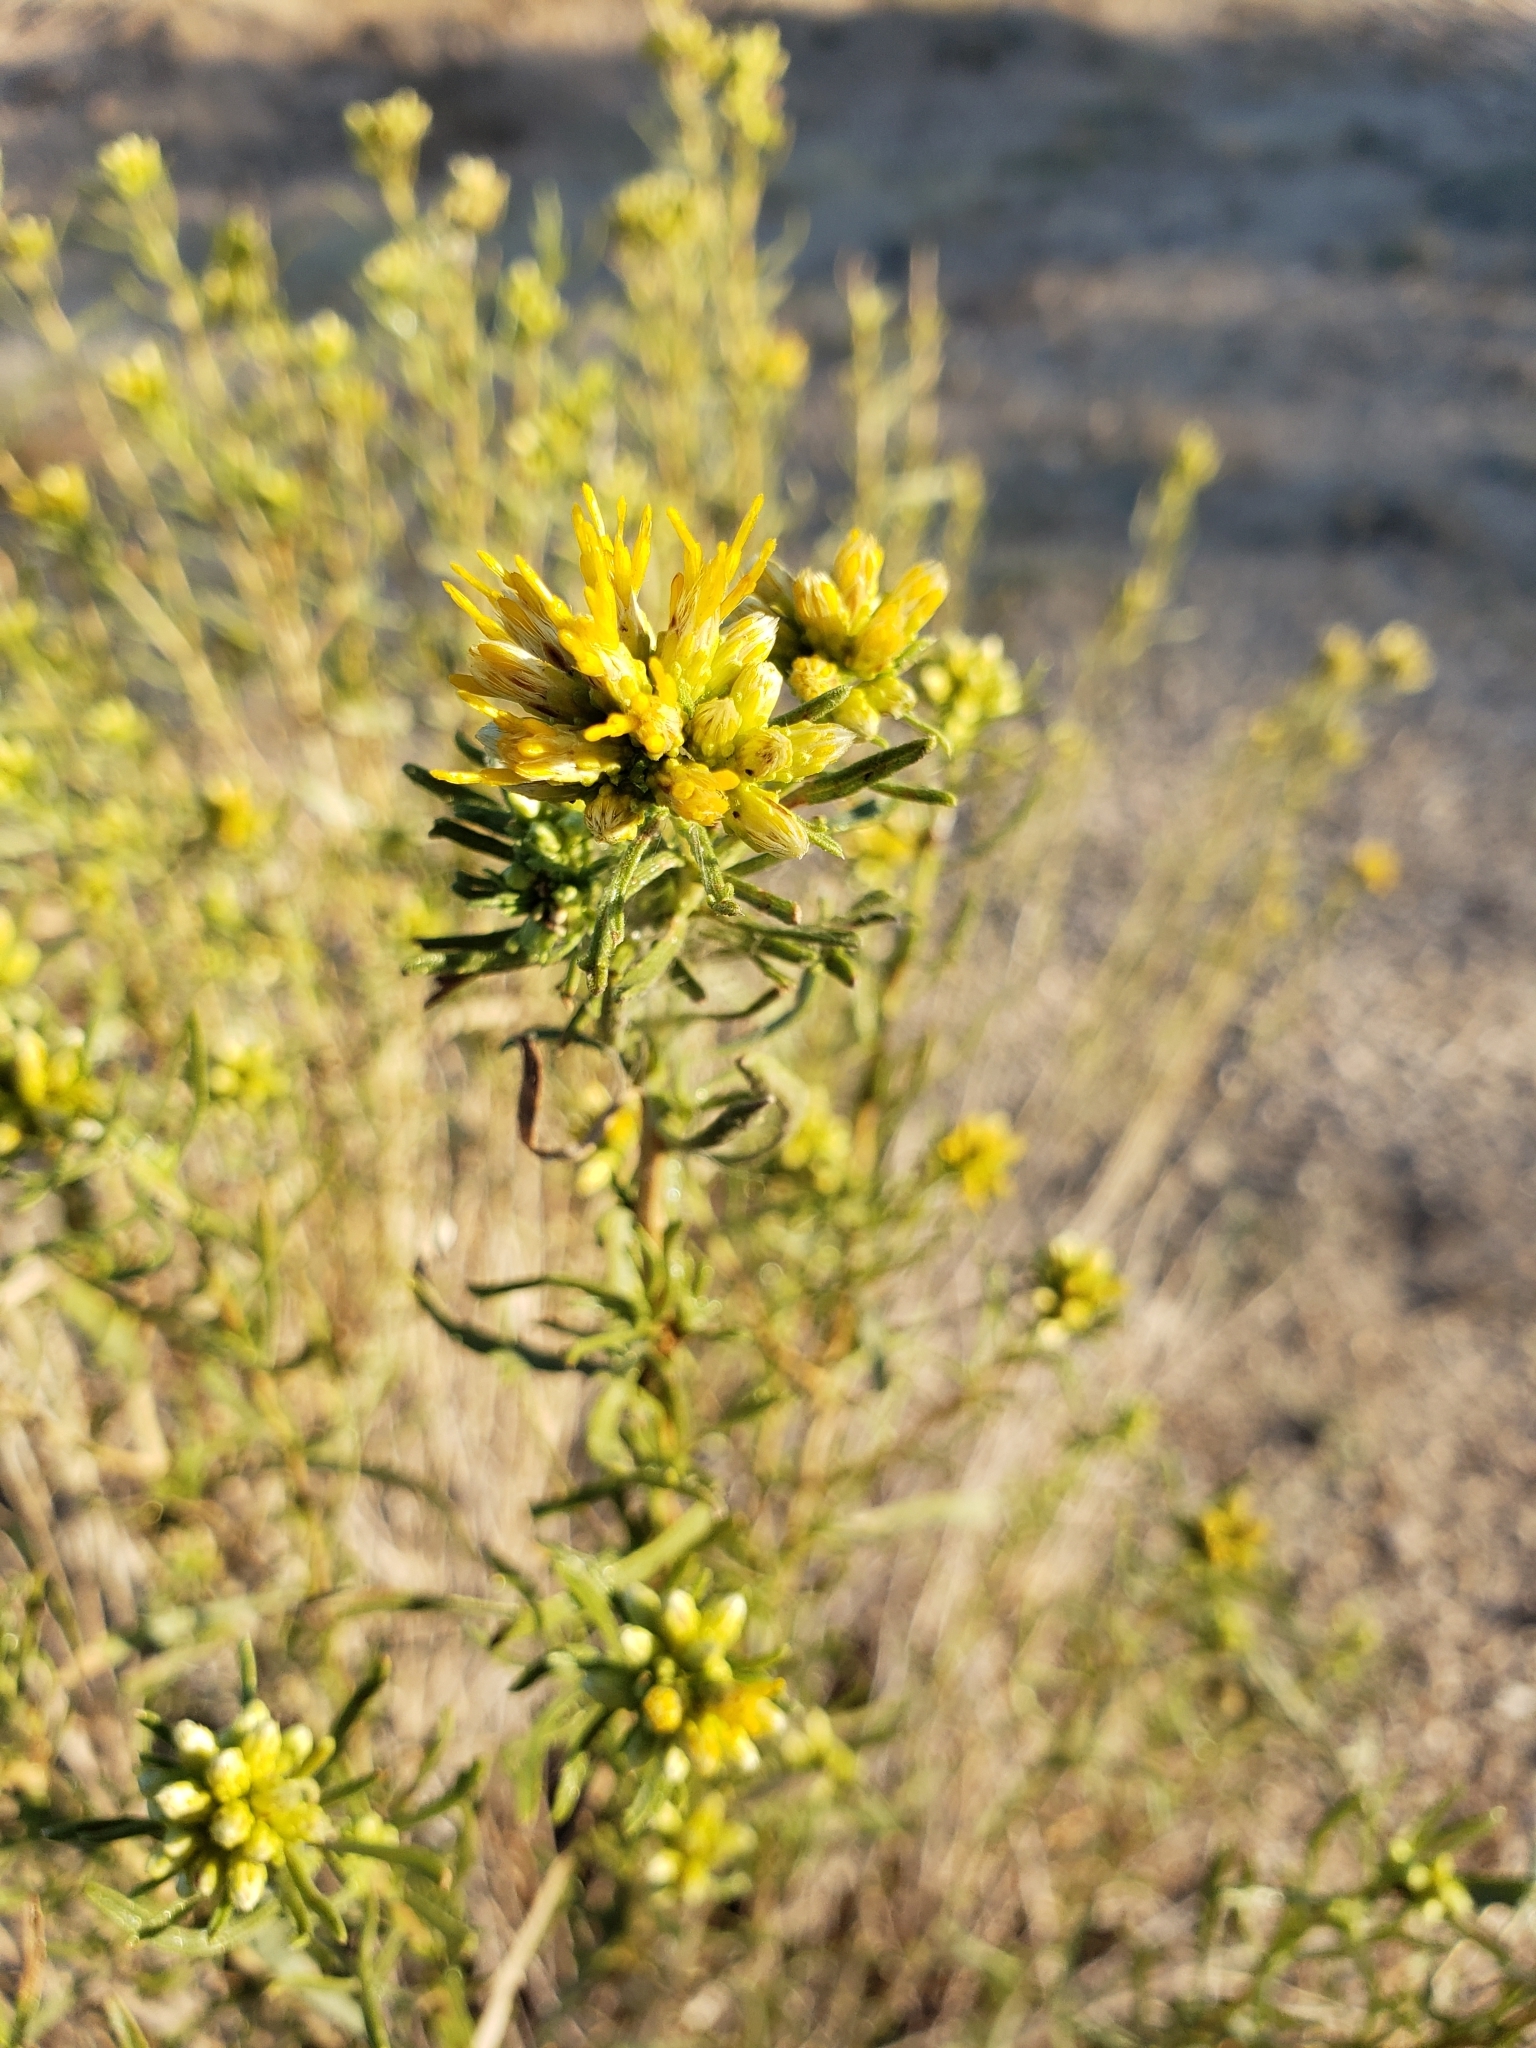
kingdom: Plantae
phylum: Tracheophyta
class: Magnoliopsida
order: Asterales
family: Asteraceae
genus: Isocoma
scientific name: Isocoma pluriflora
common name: Southern jimmyweed
